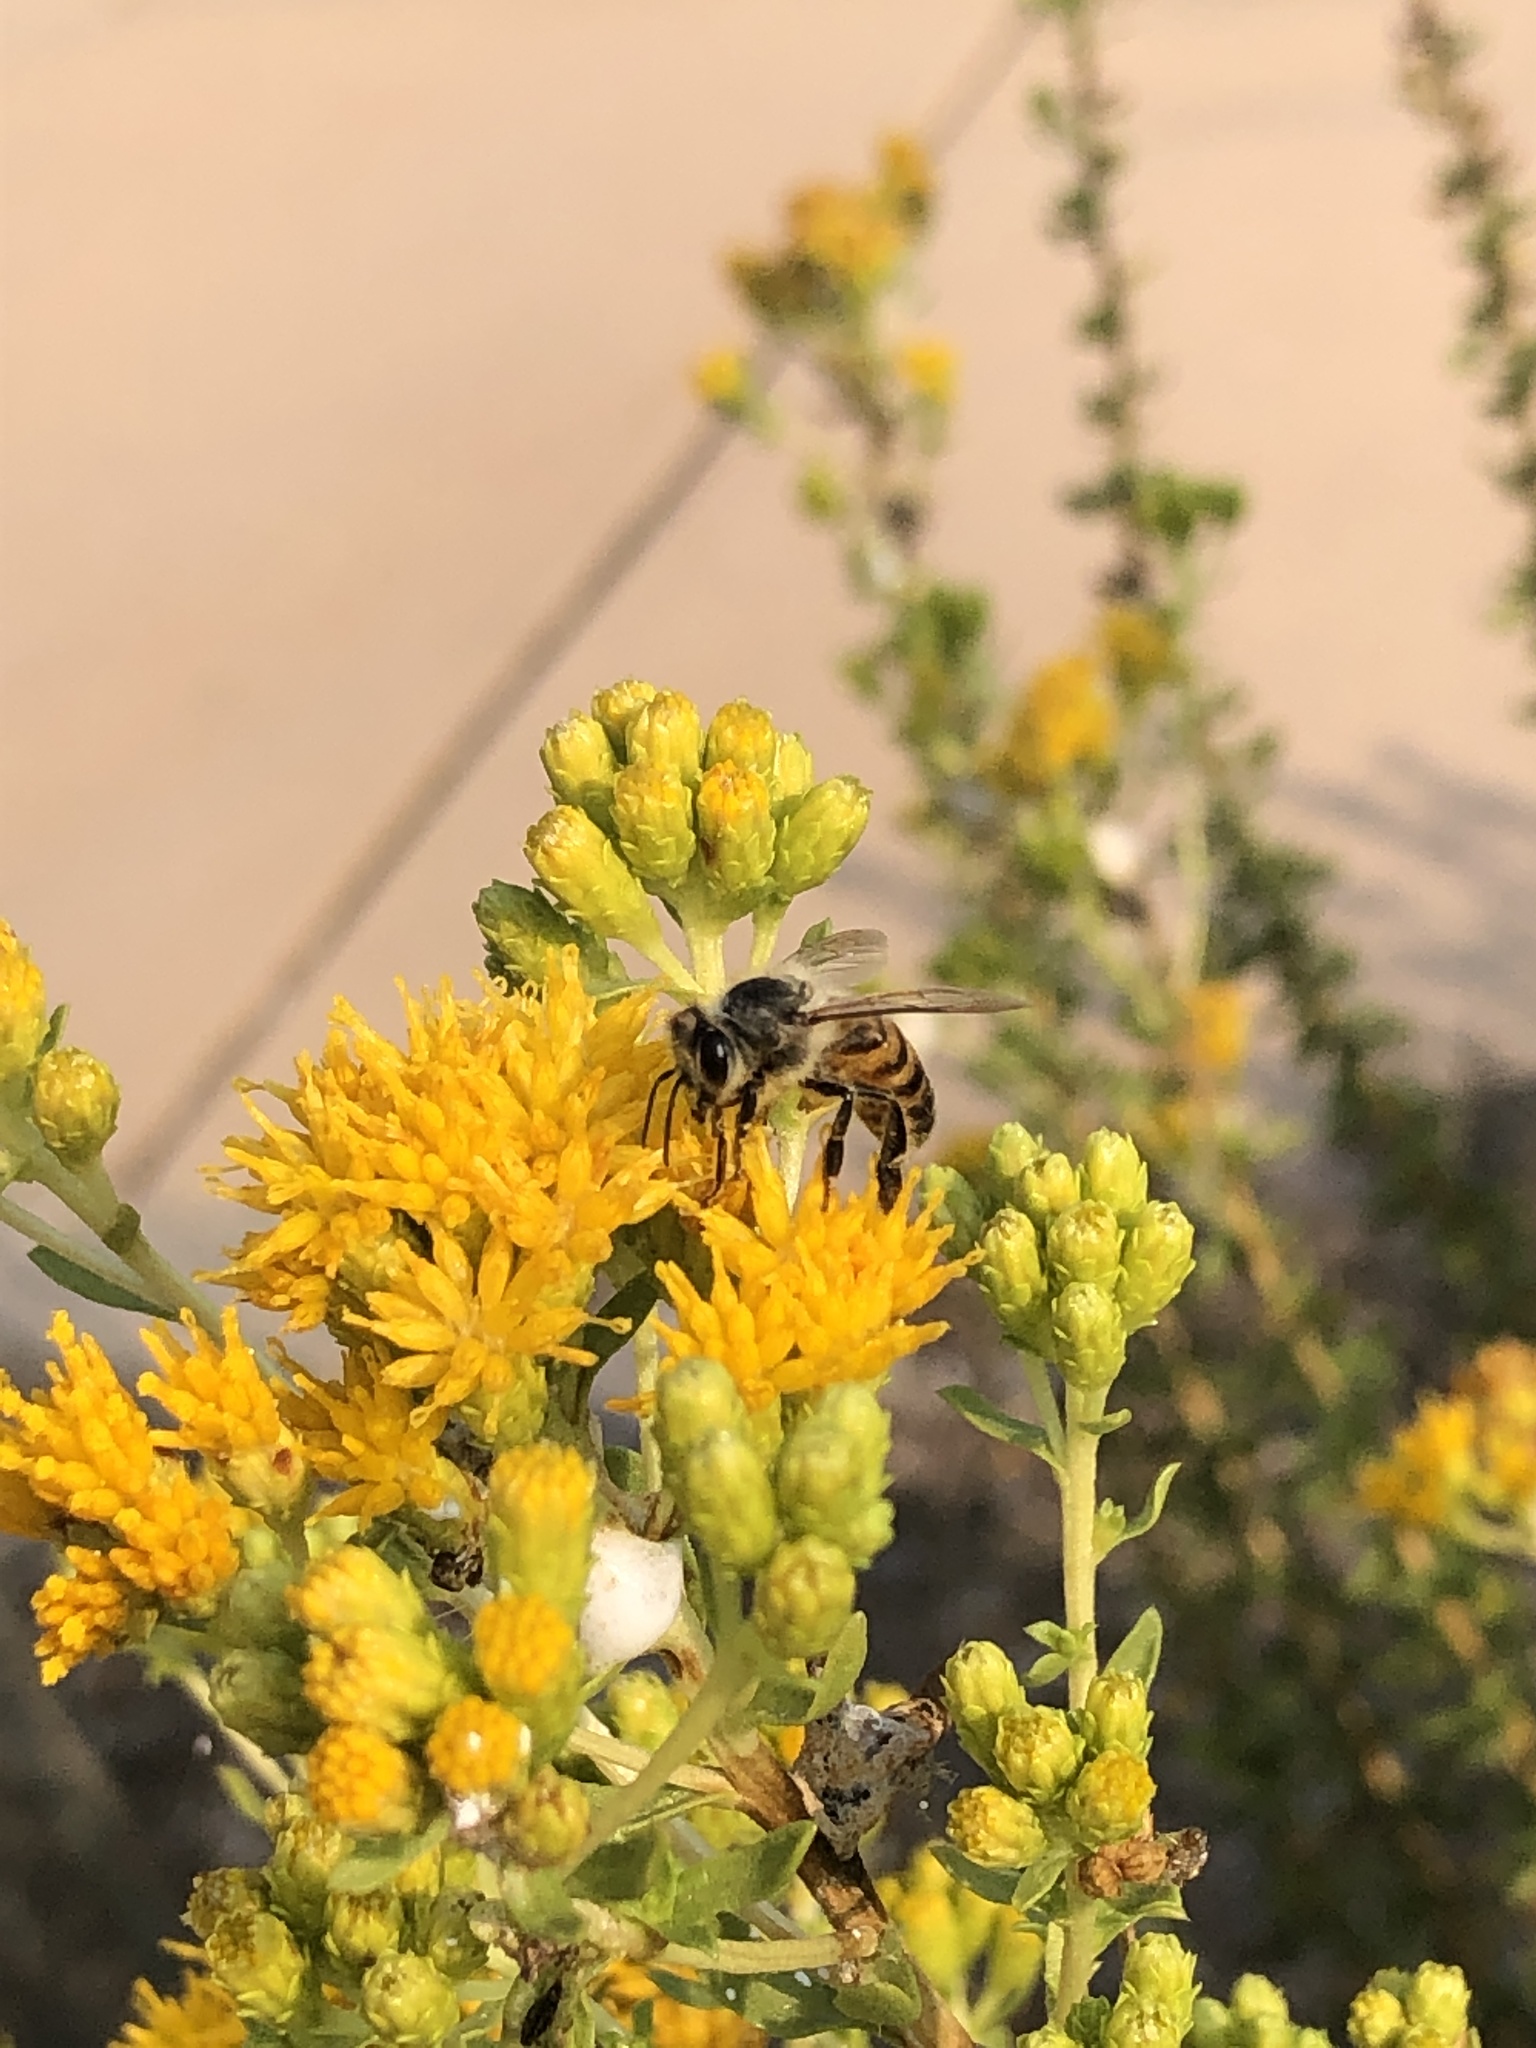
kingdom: Animalia
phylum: Arthropoda
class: Insecta
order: Hymenoptera
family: Apidae
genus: Apis
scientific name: Apis mellifera
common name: Honey bee
